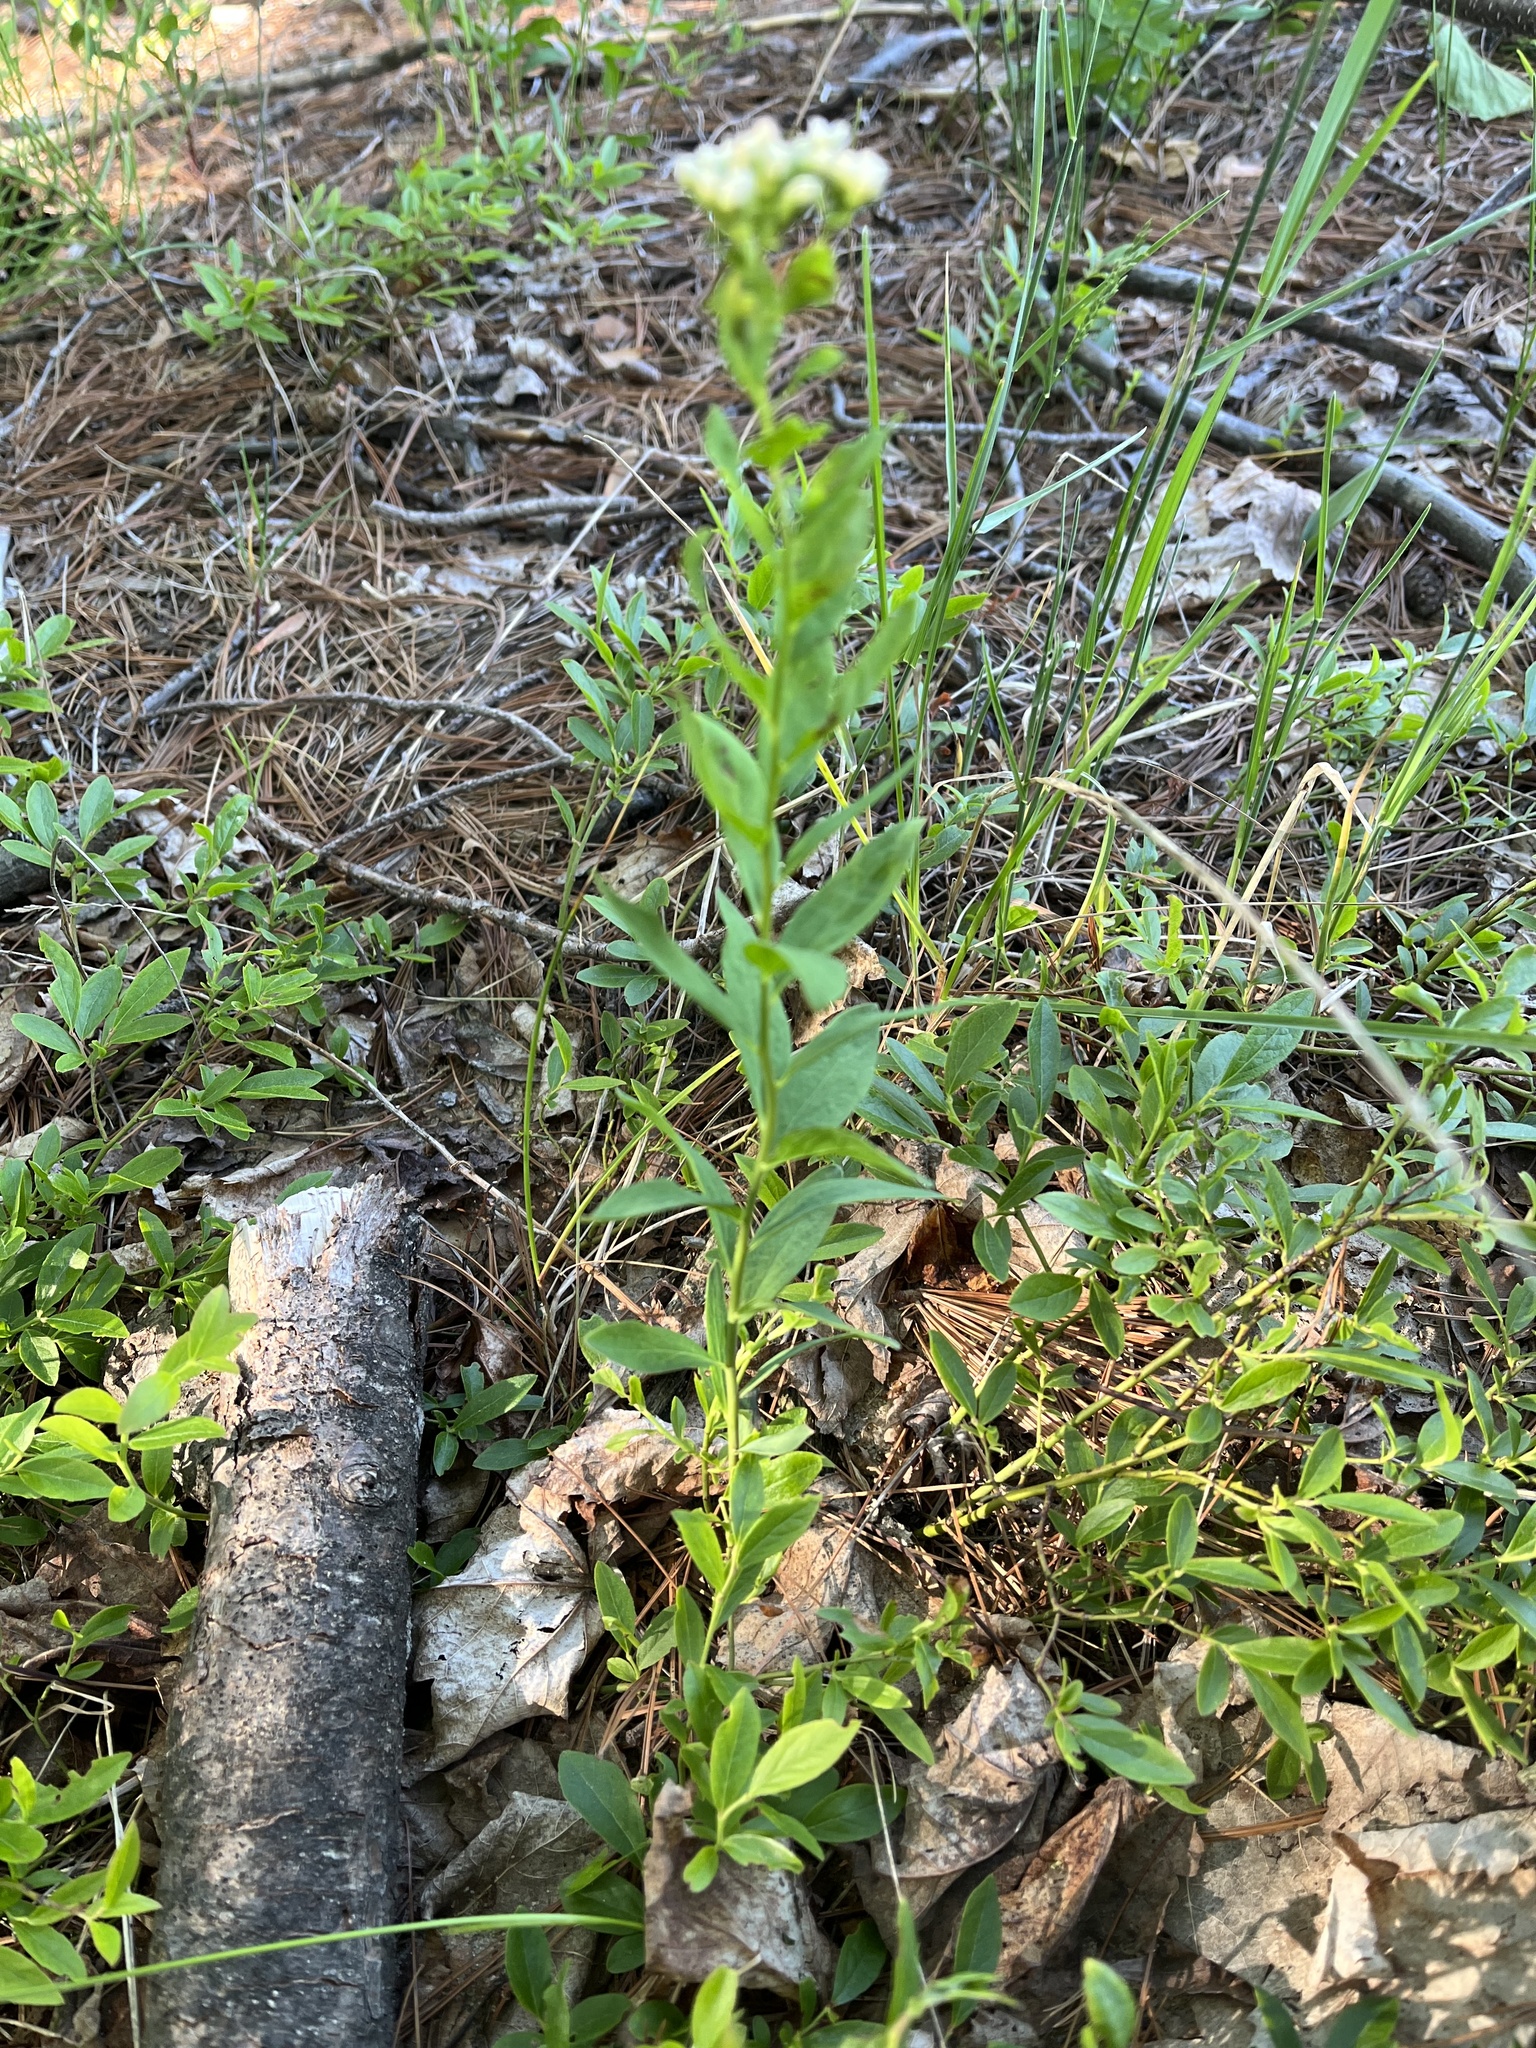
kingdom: Plantae
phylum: Tracheophyta
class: Magnoliopsida
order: Santalales
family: Comandraceae
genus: Comandra
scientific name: Comandra umbellata
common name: Bastard toadflax
